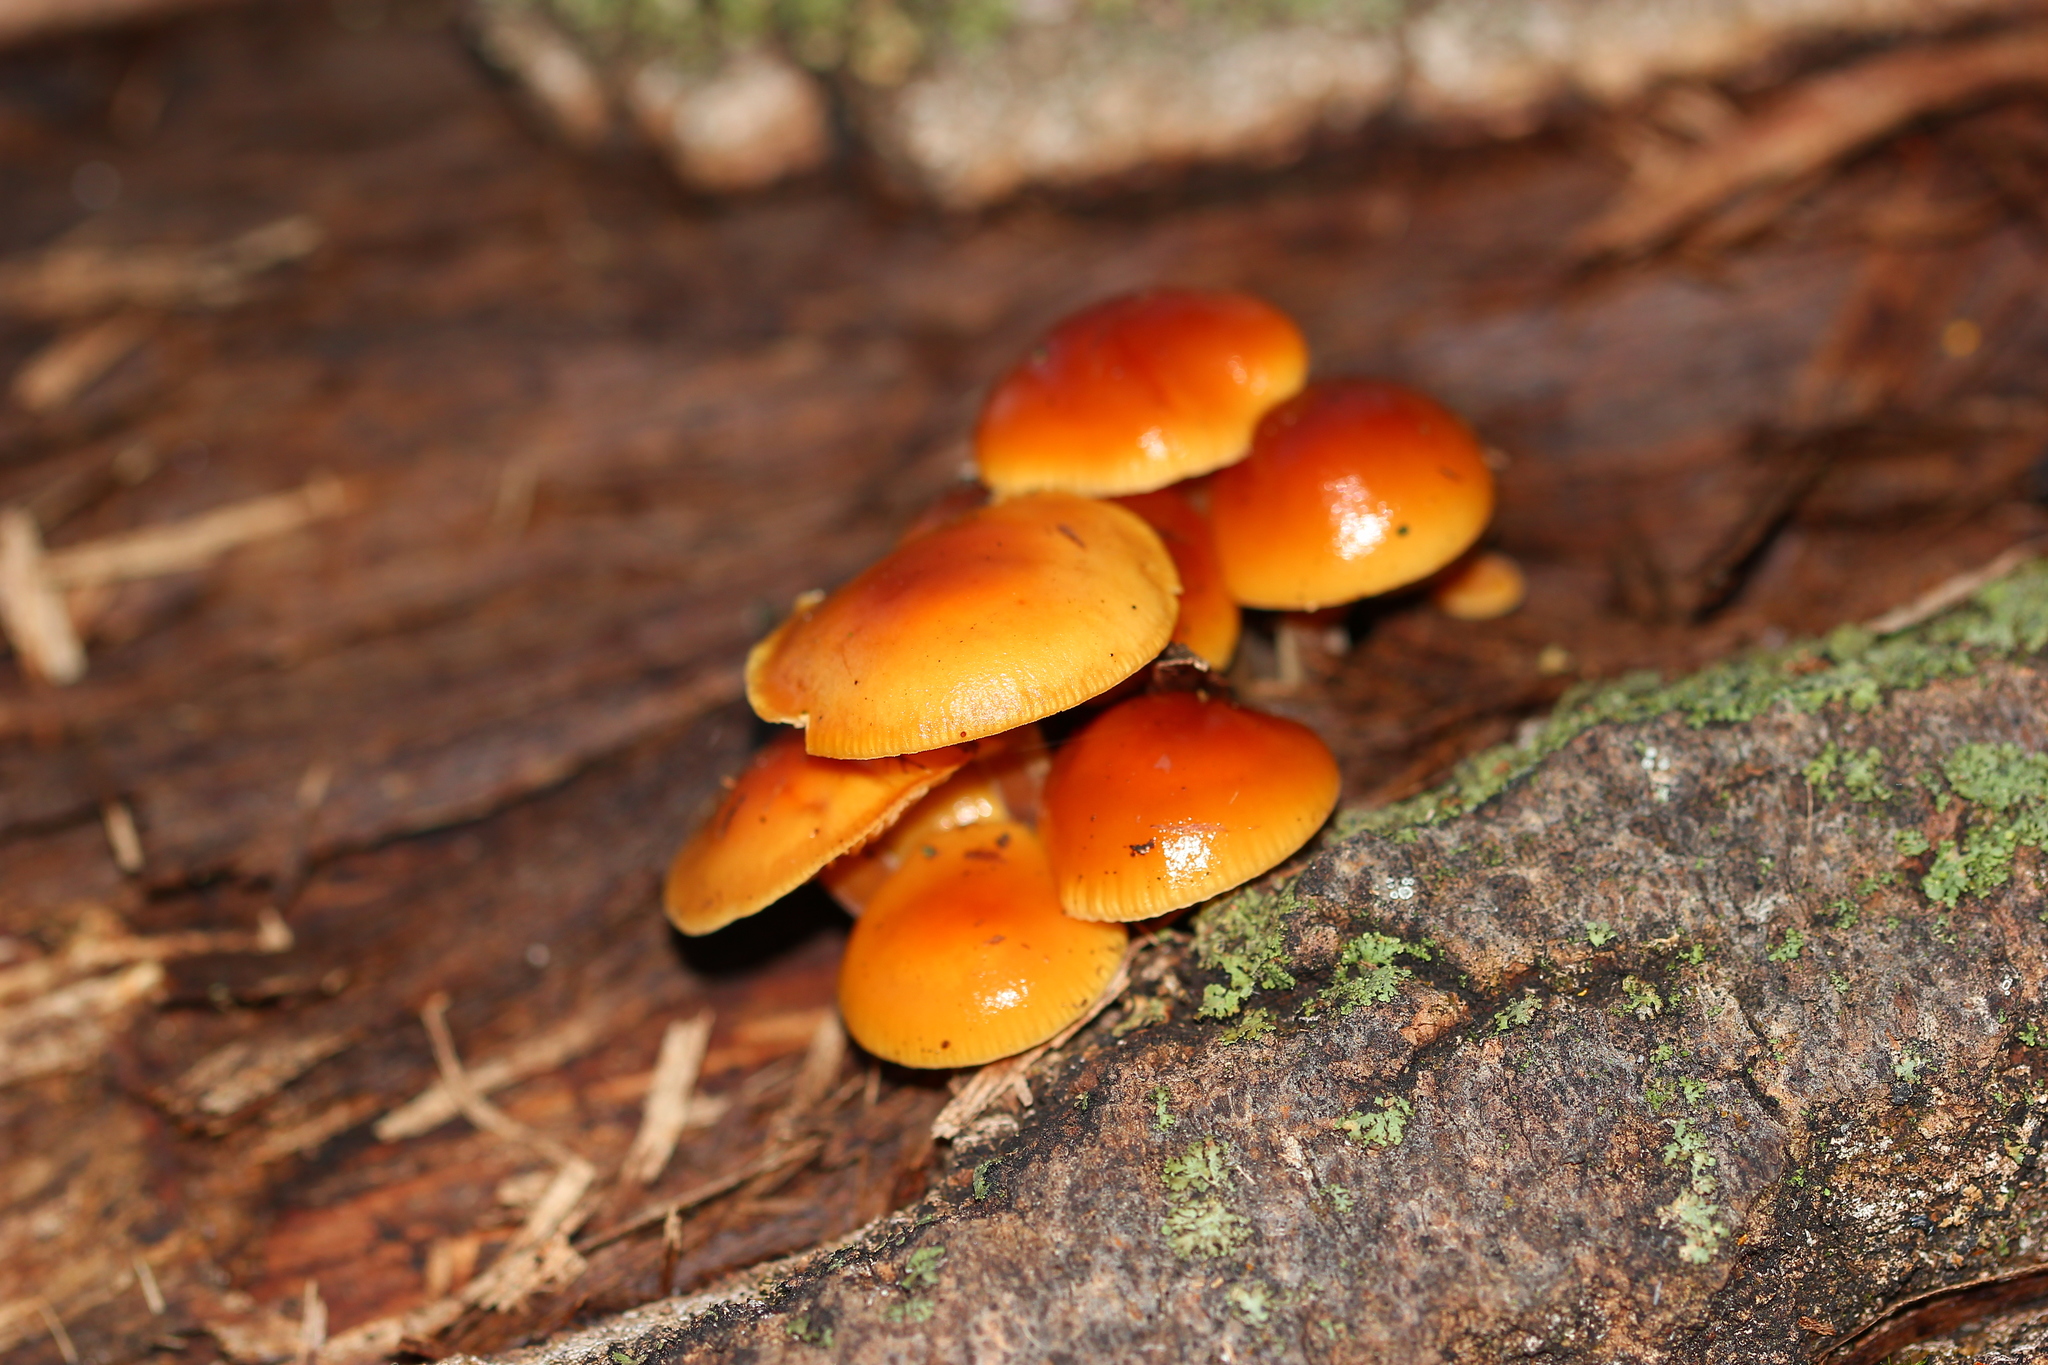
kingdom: Fungi
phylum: Basidiomycota
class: Agaricomycetes
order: Agaricales
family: Physalacriaceae
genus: Flammulina
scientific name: Flammulina
